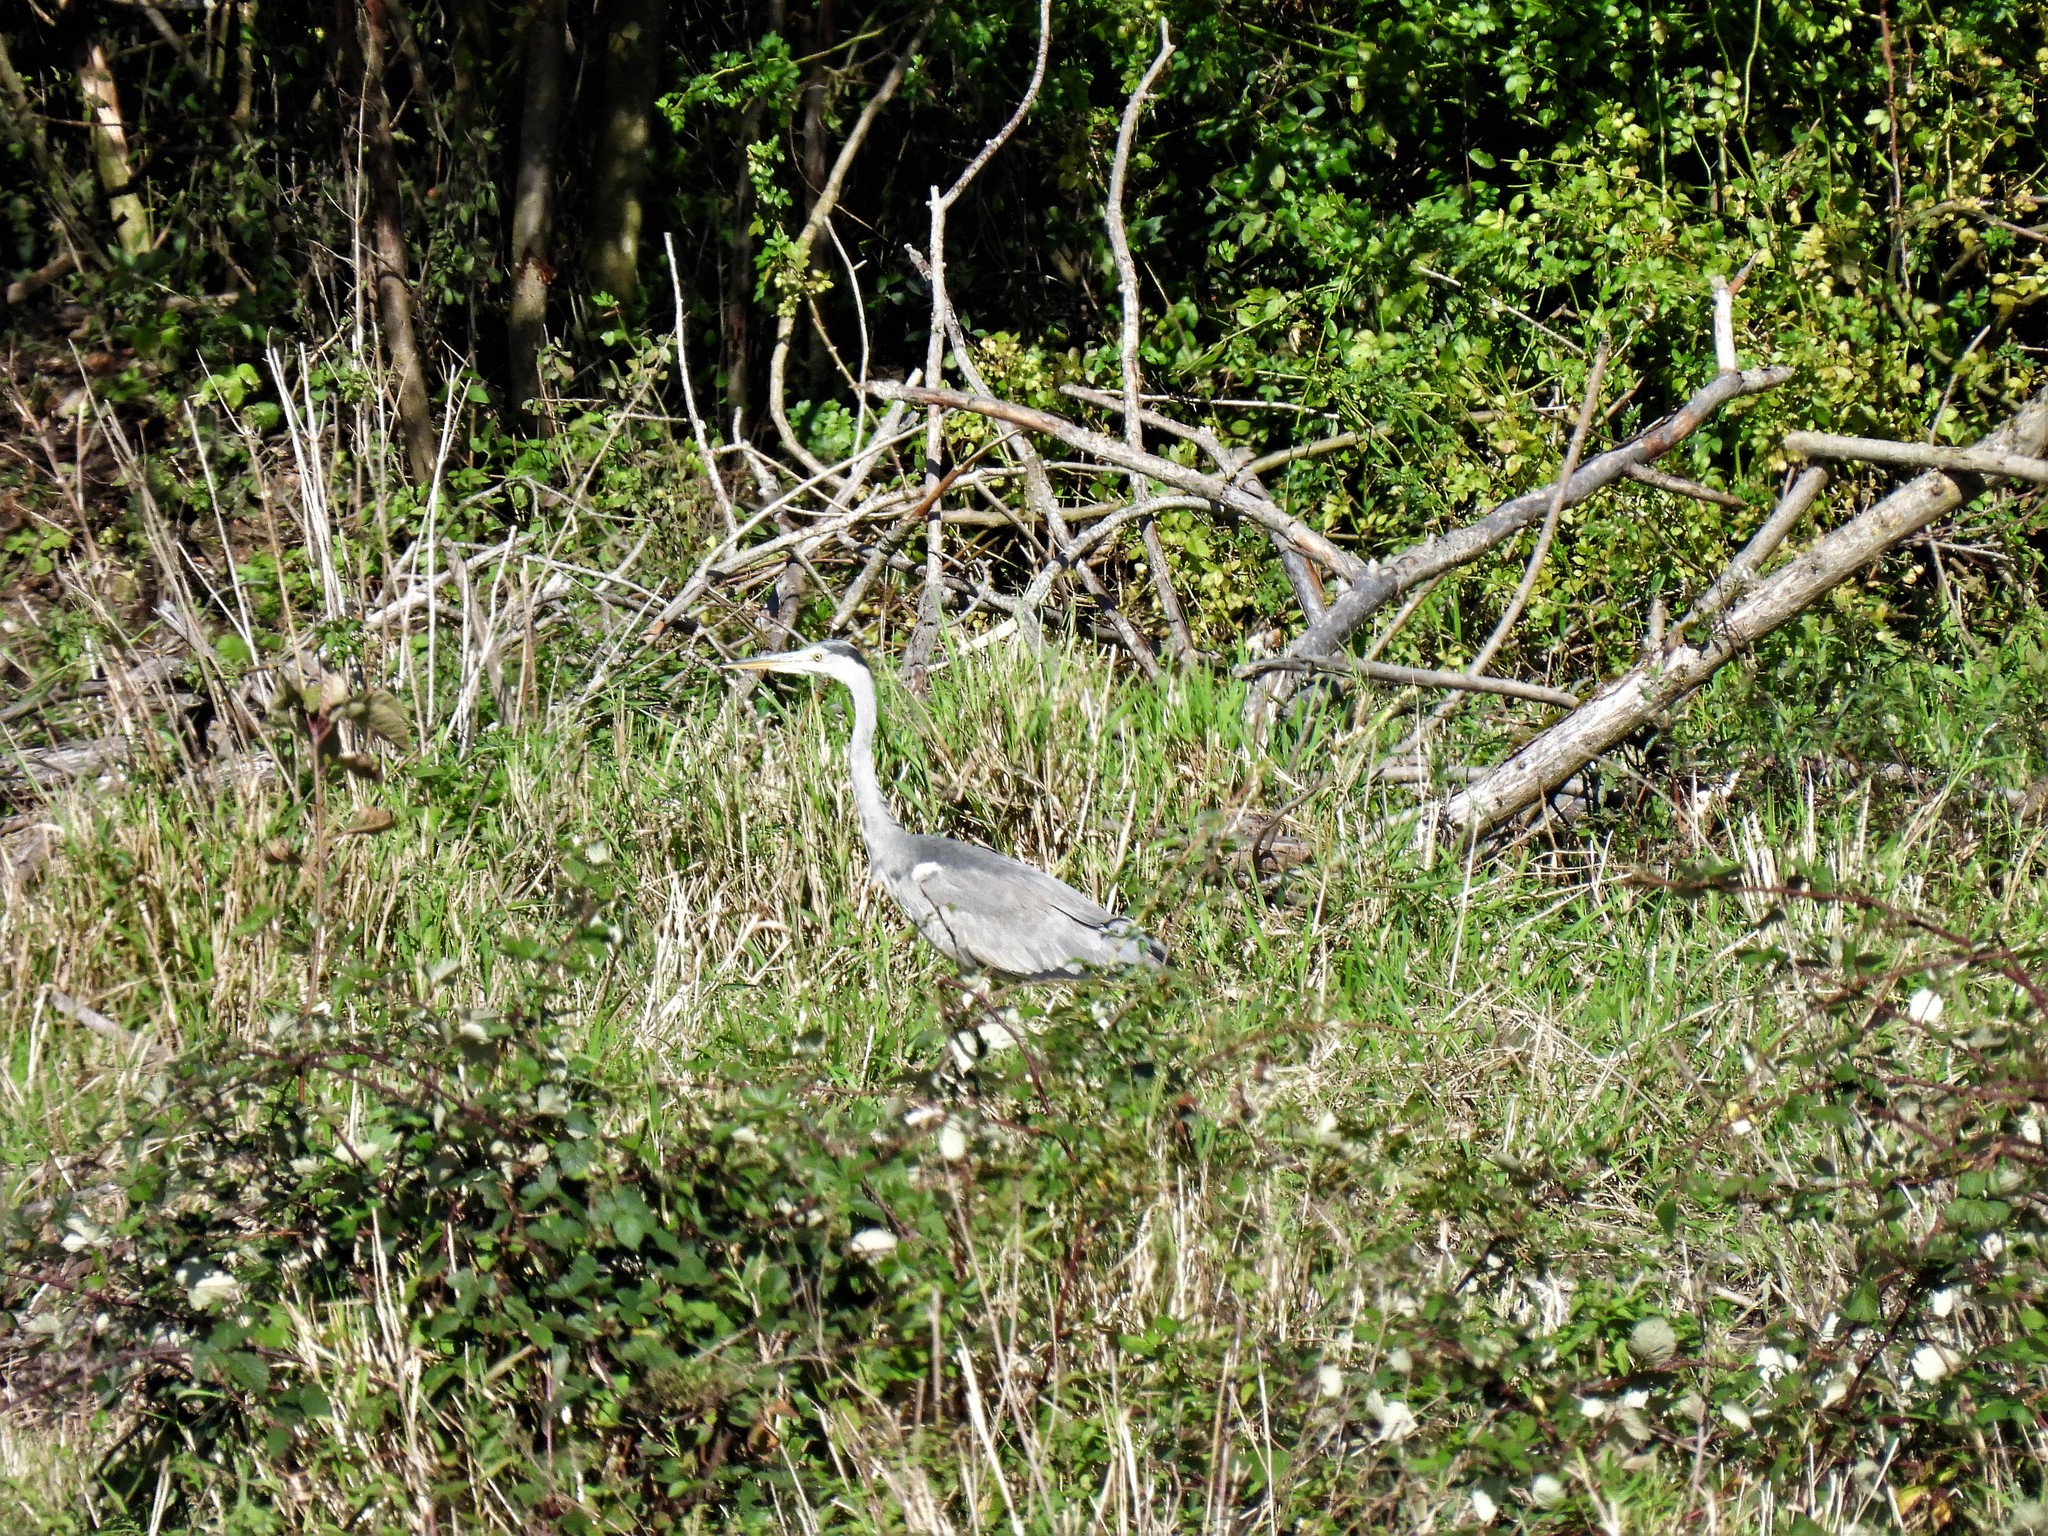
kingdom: Animalia
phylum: Chordata
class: Aves
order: Pelecaniformes
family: Ardeidae
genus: Ardea
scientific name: Ardea cinerea
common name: Grey heron
